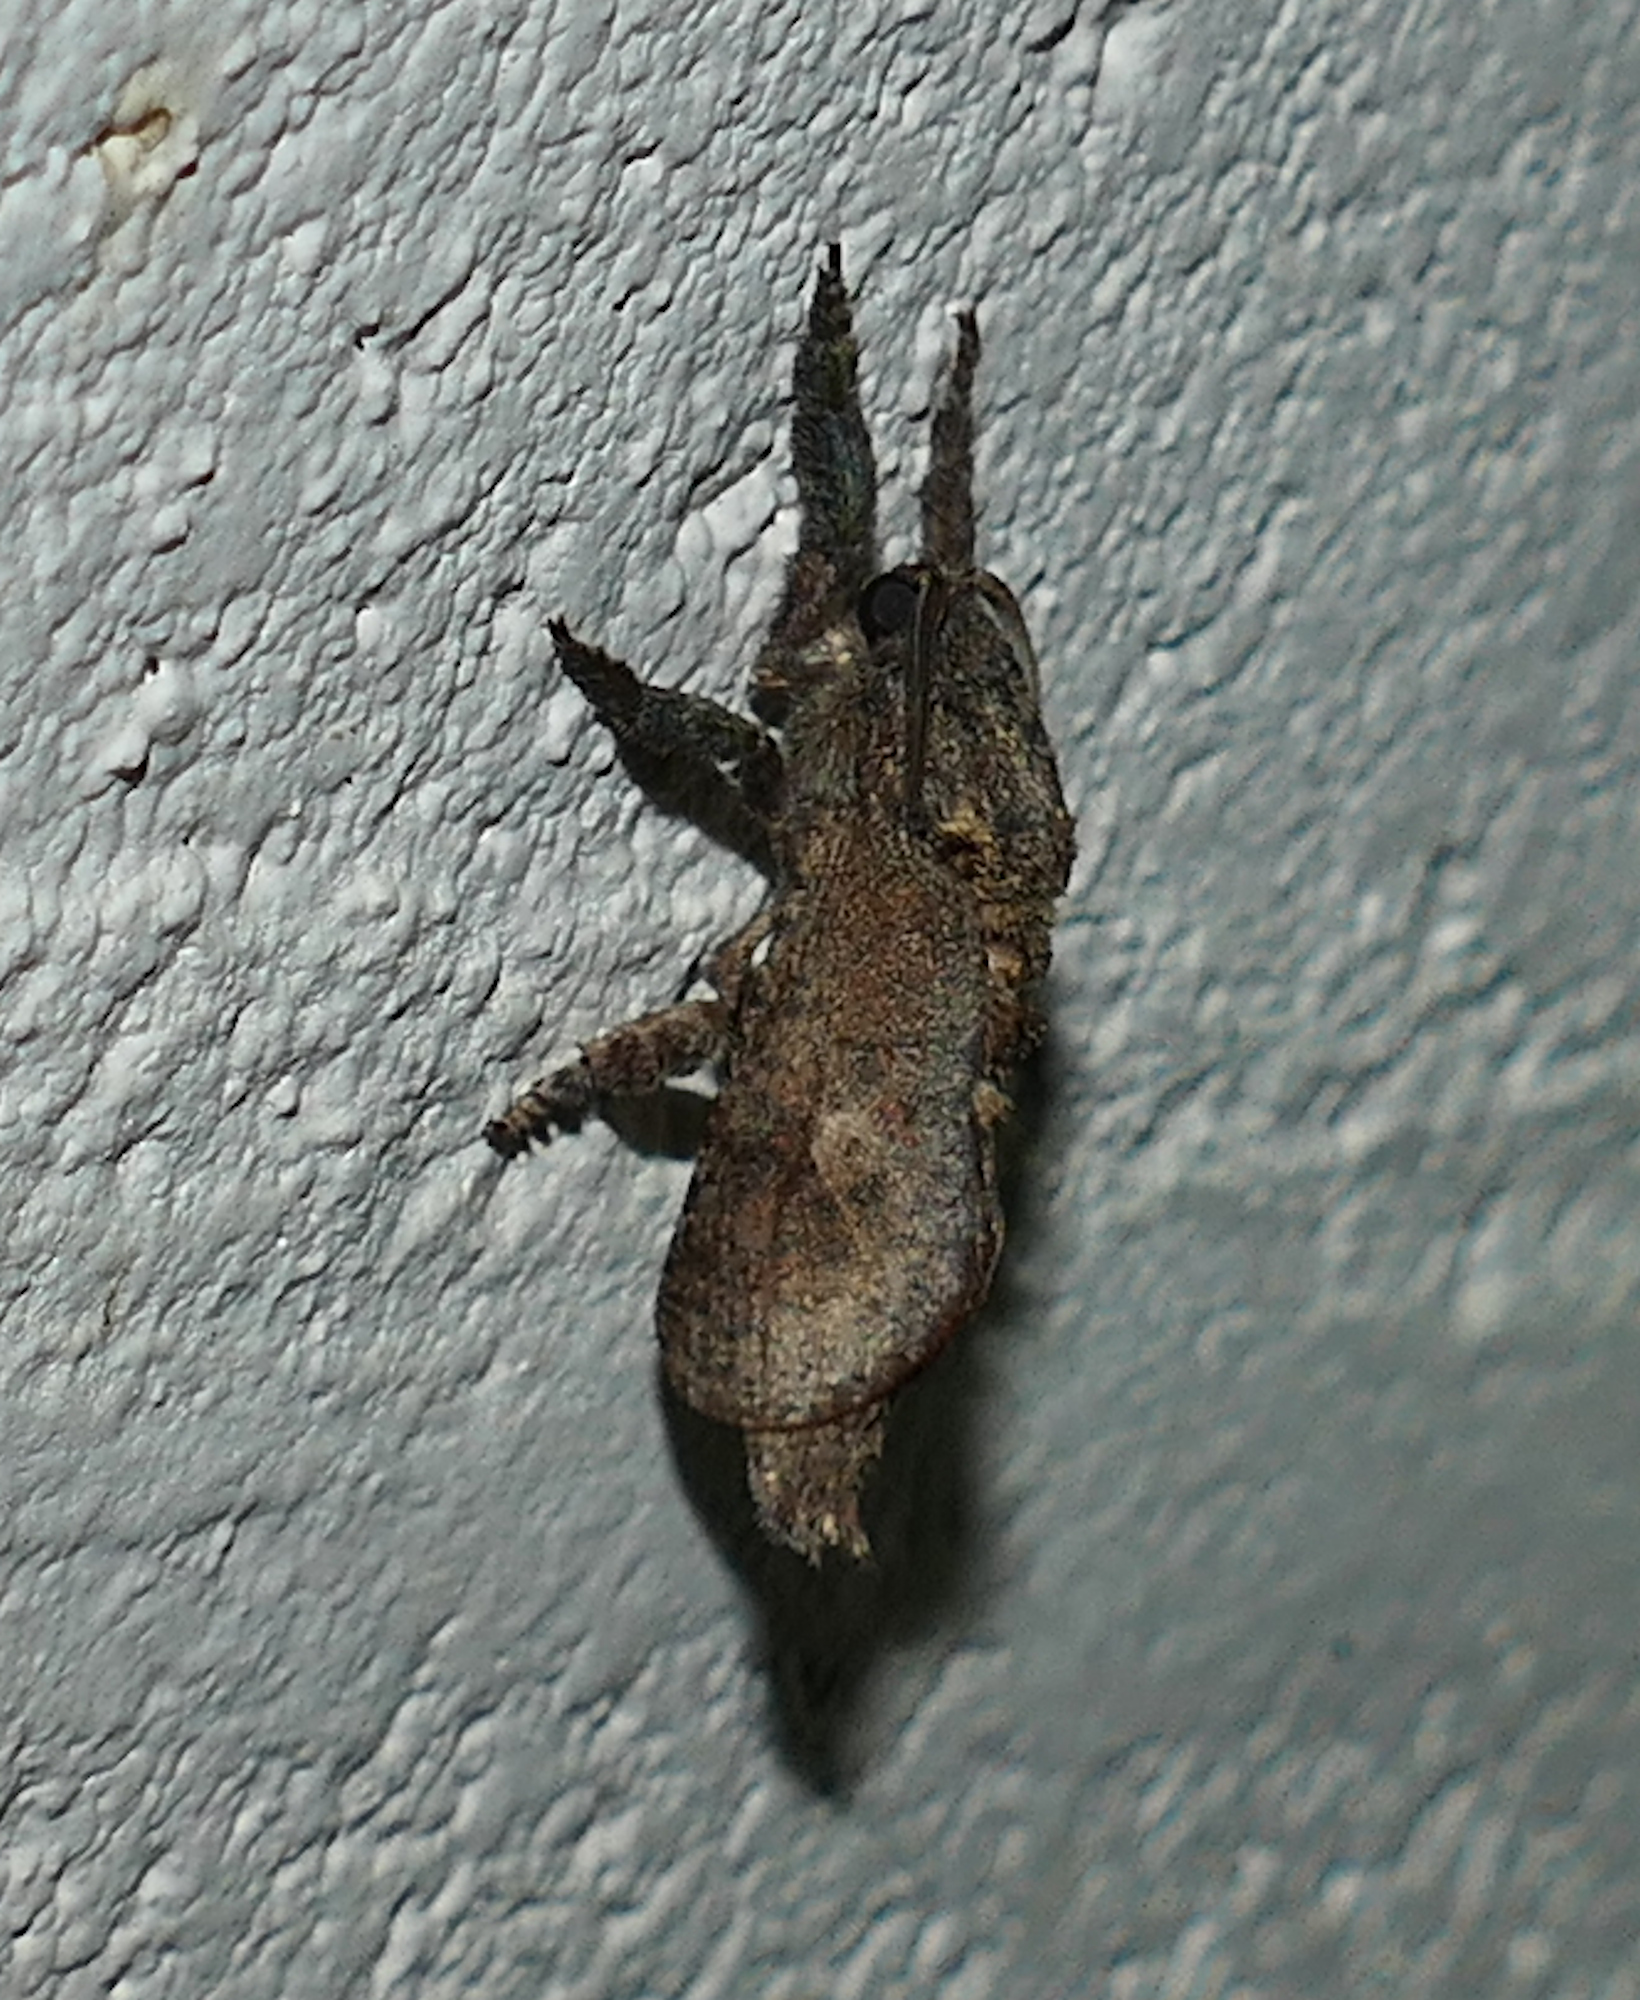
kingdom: Animalia
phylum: Arthropoda
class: Insecta
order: Lepidoptera
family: Cossidae
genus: Givira
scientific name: Givira arbeloides
